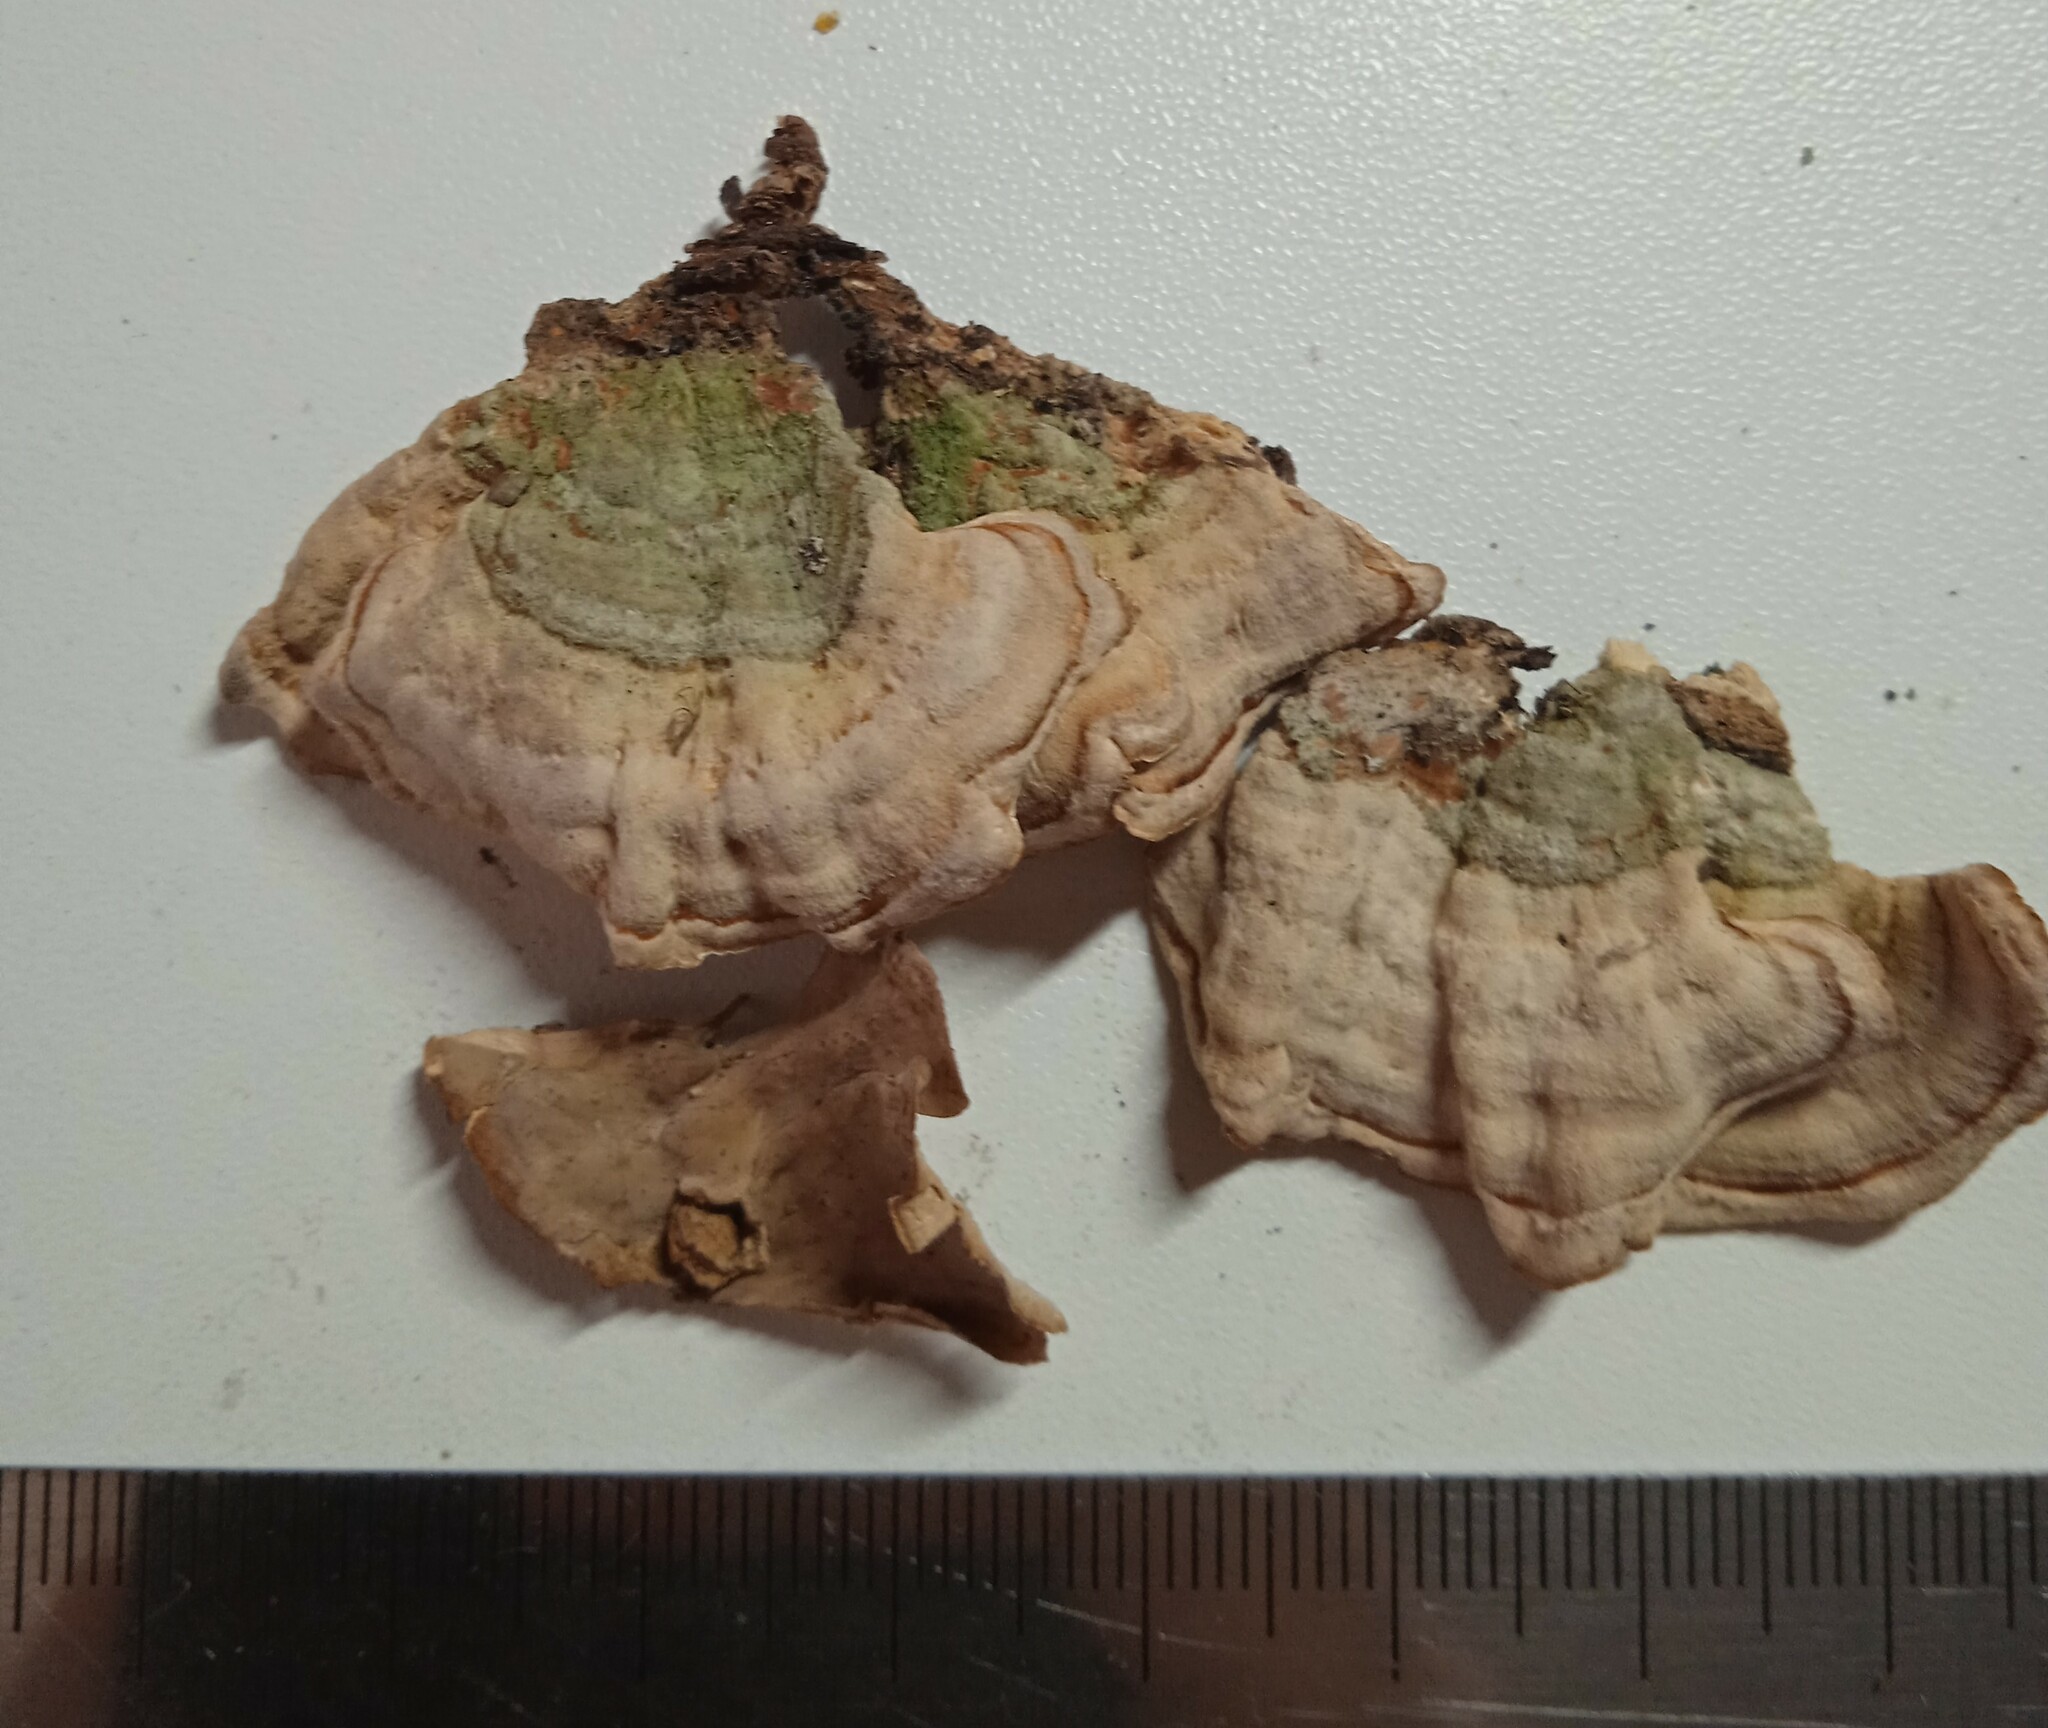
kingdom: Fungi
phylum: Basidiomycota
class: Agaricomycetes
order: Russulales
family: Stereaceae
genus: Stereum
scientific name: Stereum subtomentosum
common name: Yellowing curtain crust
